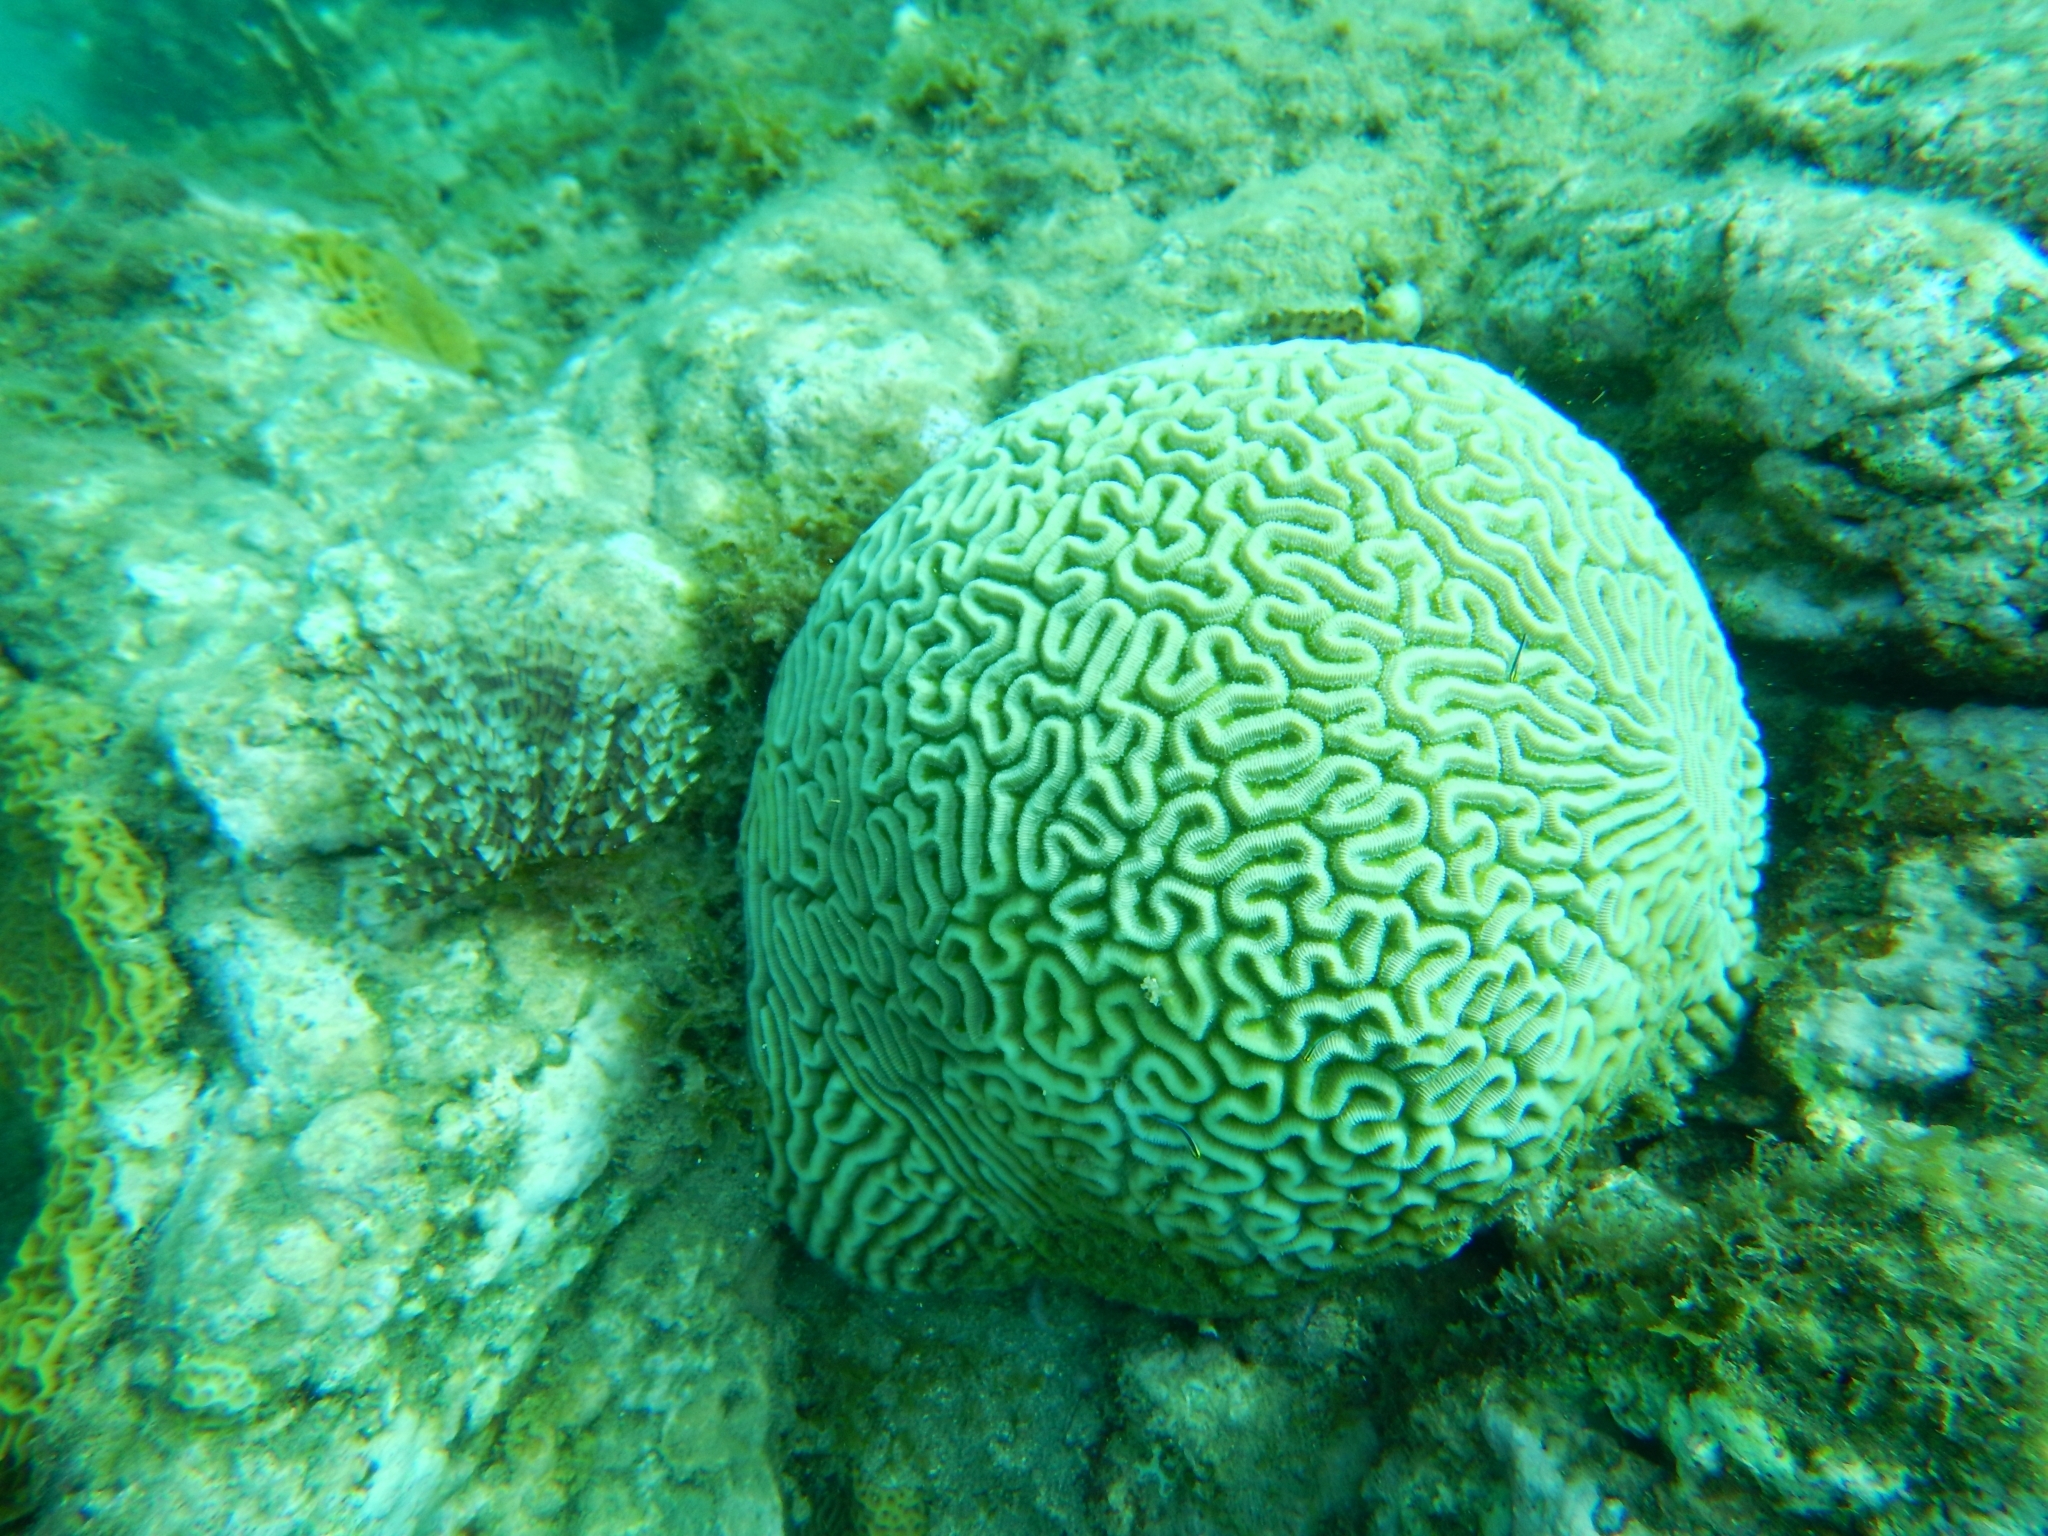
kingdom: Animalia
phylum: Cnidaria
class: Anthozoa
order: Scleractinia
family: Faviidae
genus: Pseudodiploria
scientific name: Pseudodiploria strigosa
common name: Symmetrical brain coral
